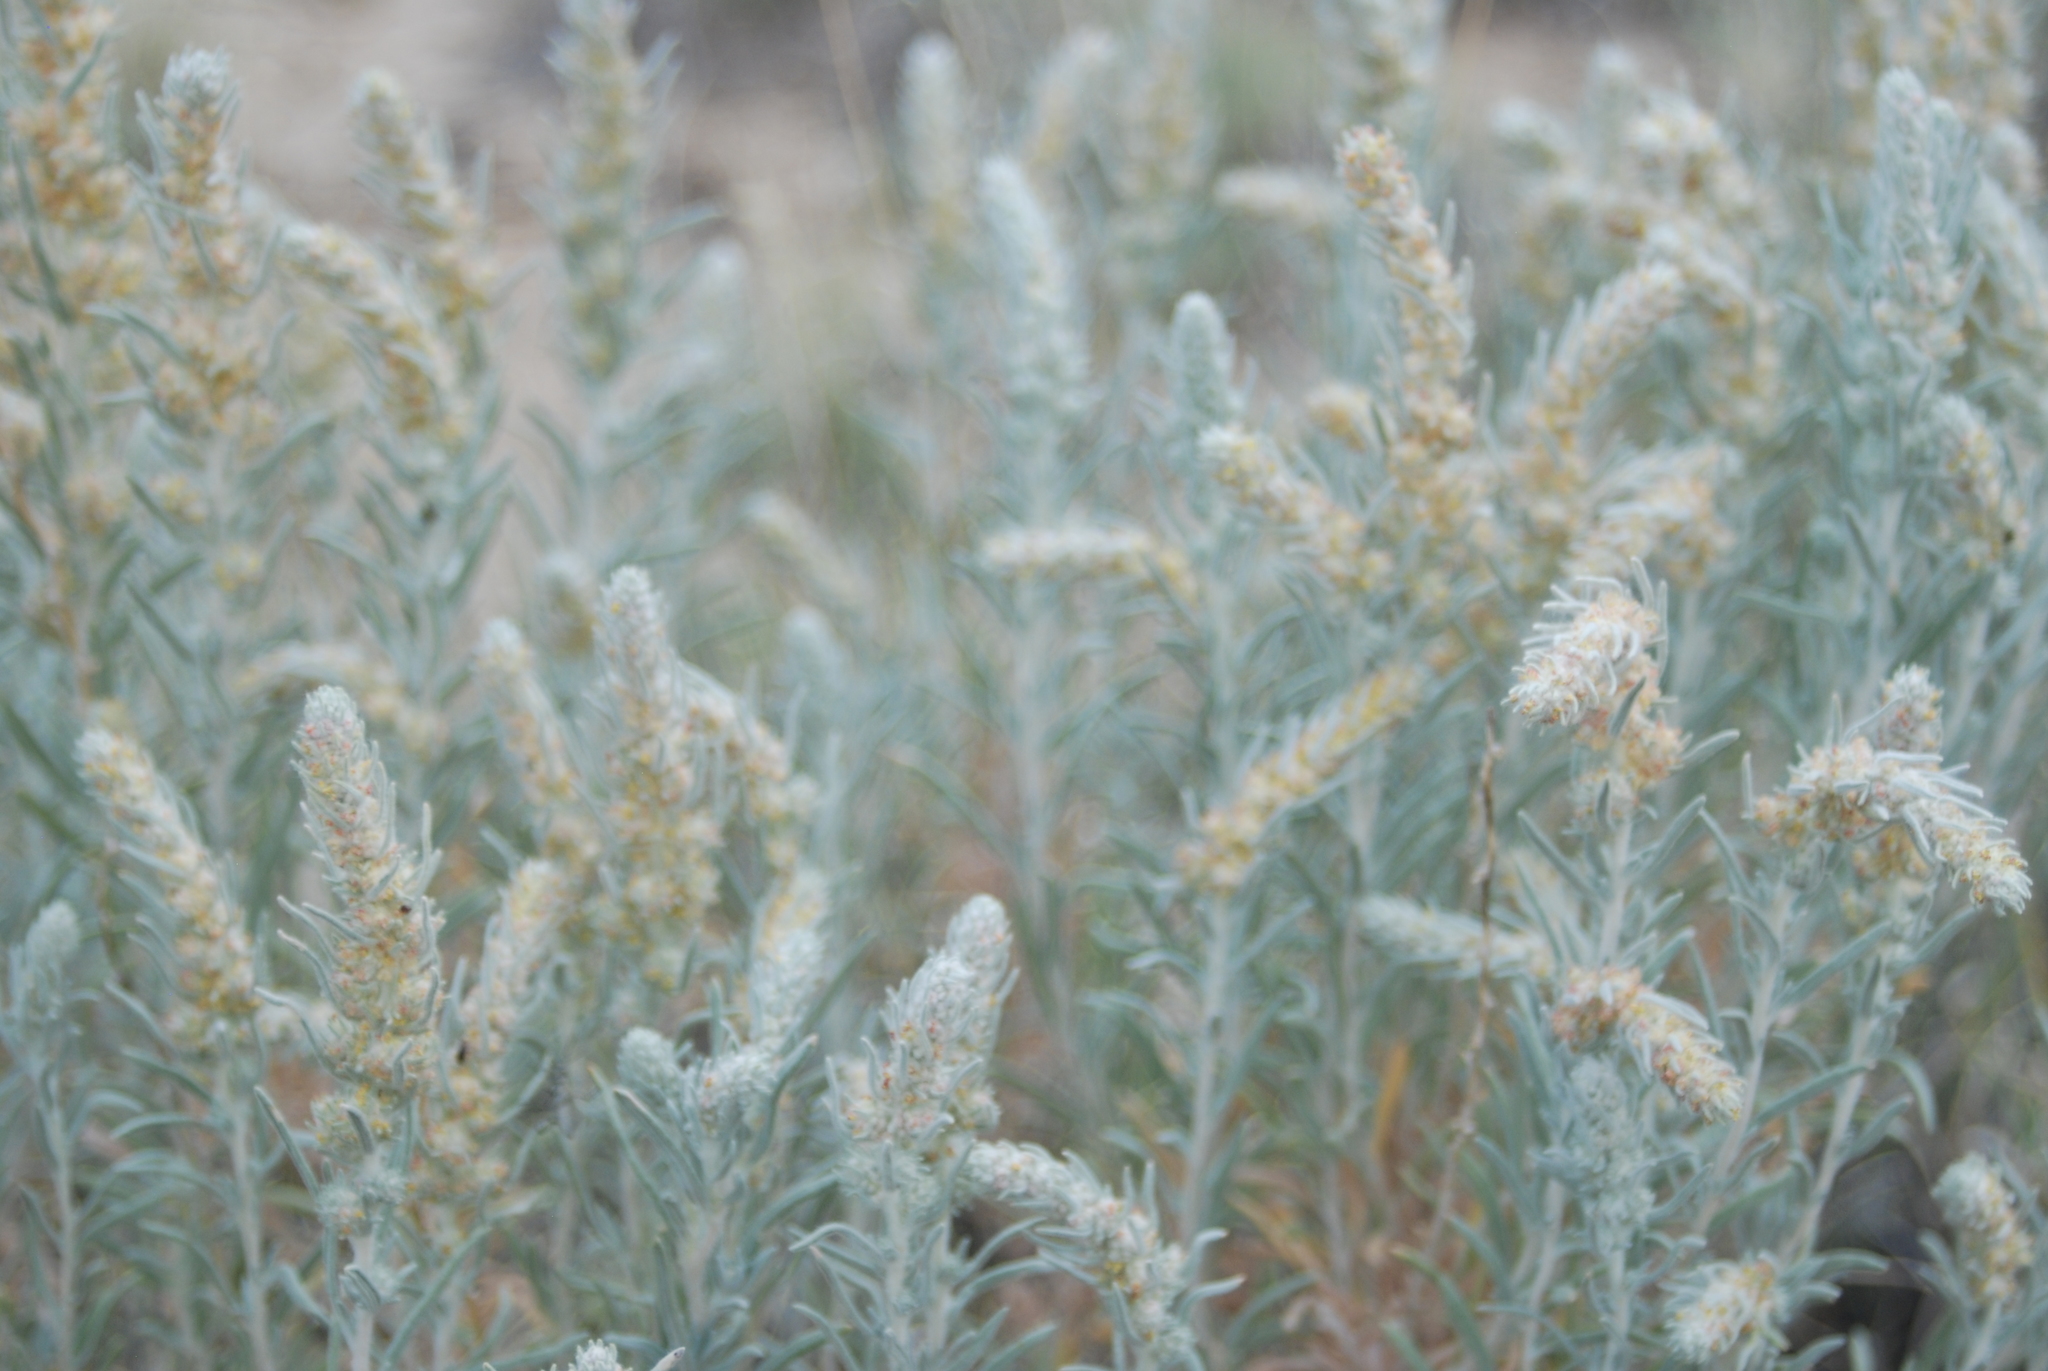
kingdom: Plantae
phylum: Tracheophyta
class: Magnoliopsida
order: Caryophyllales
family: Amaranthaceae
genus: Krascheninnikovia
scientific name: Krascheninnikovia lanata
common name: Winterfat
